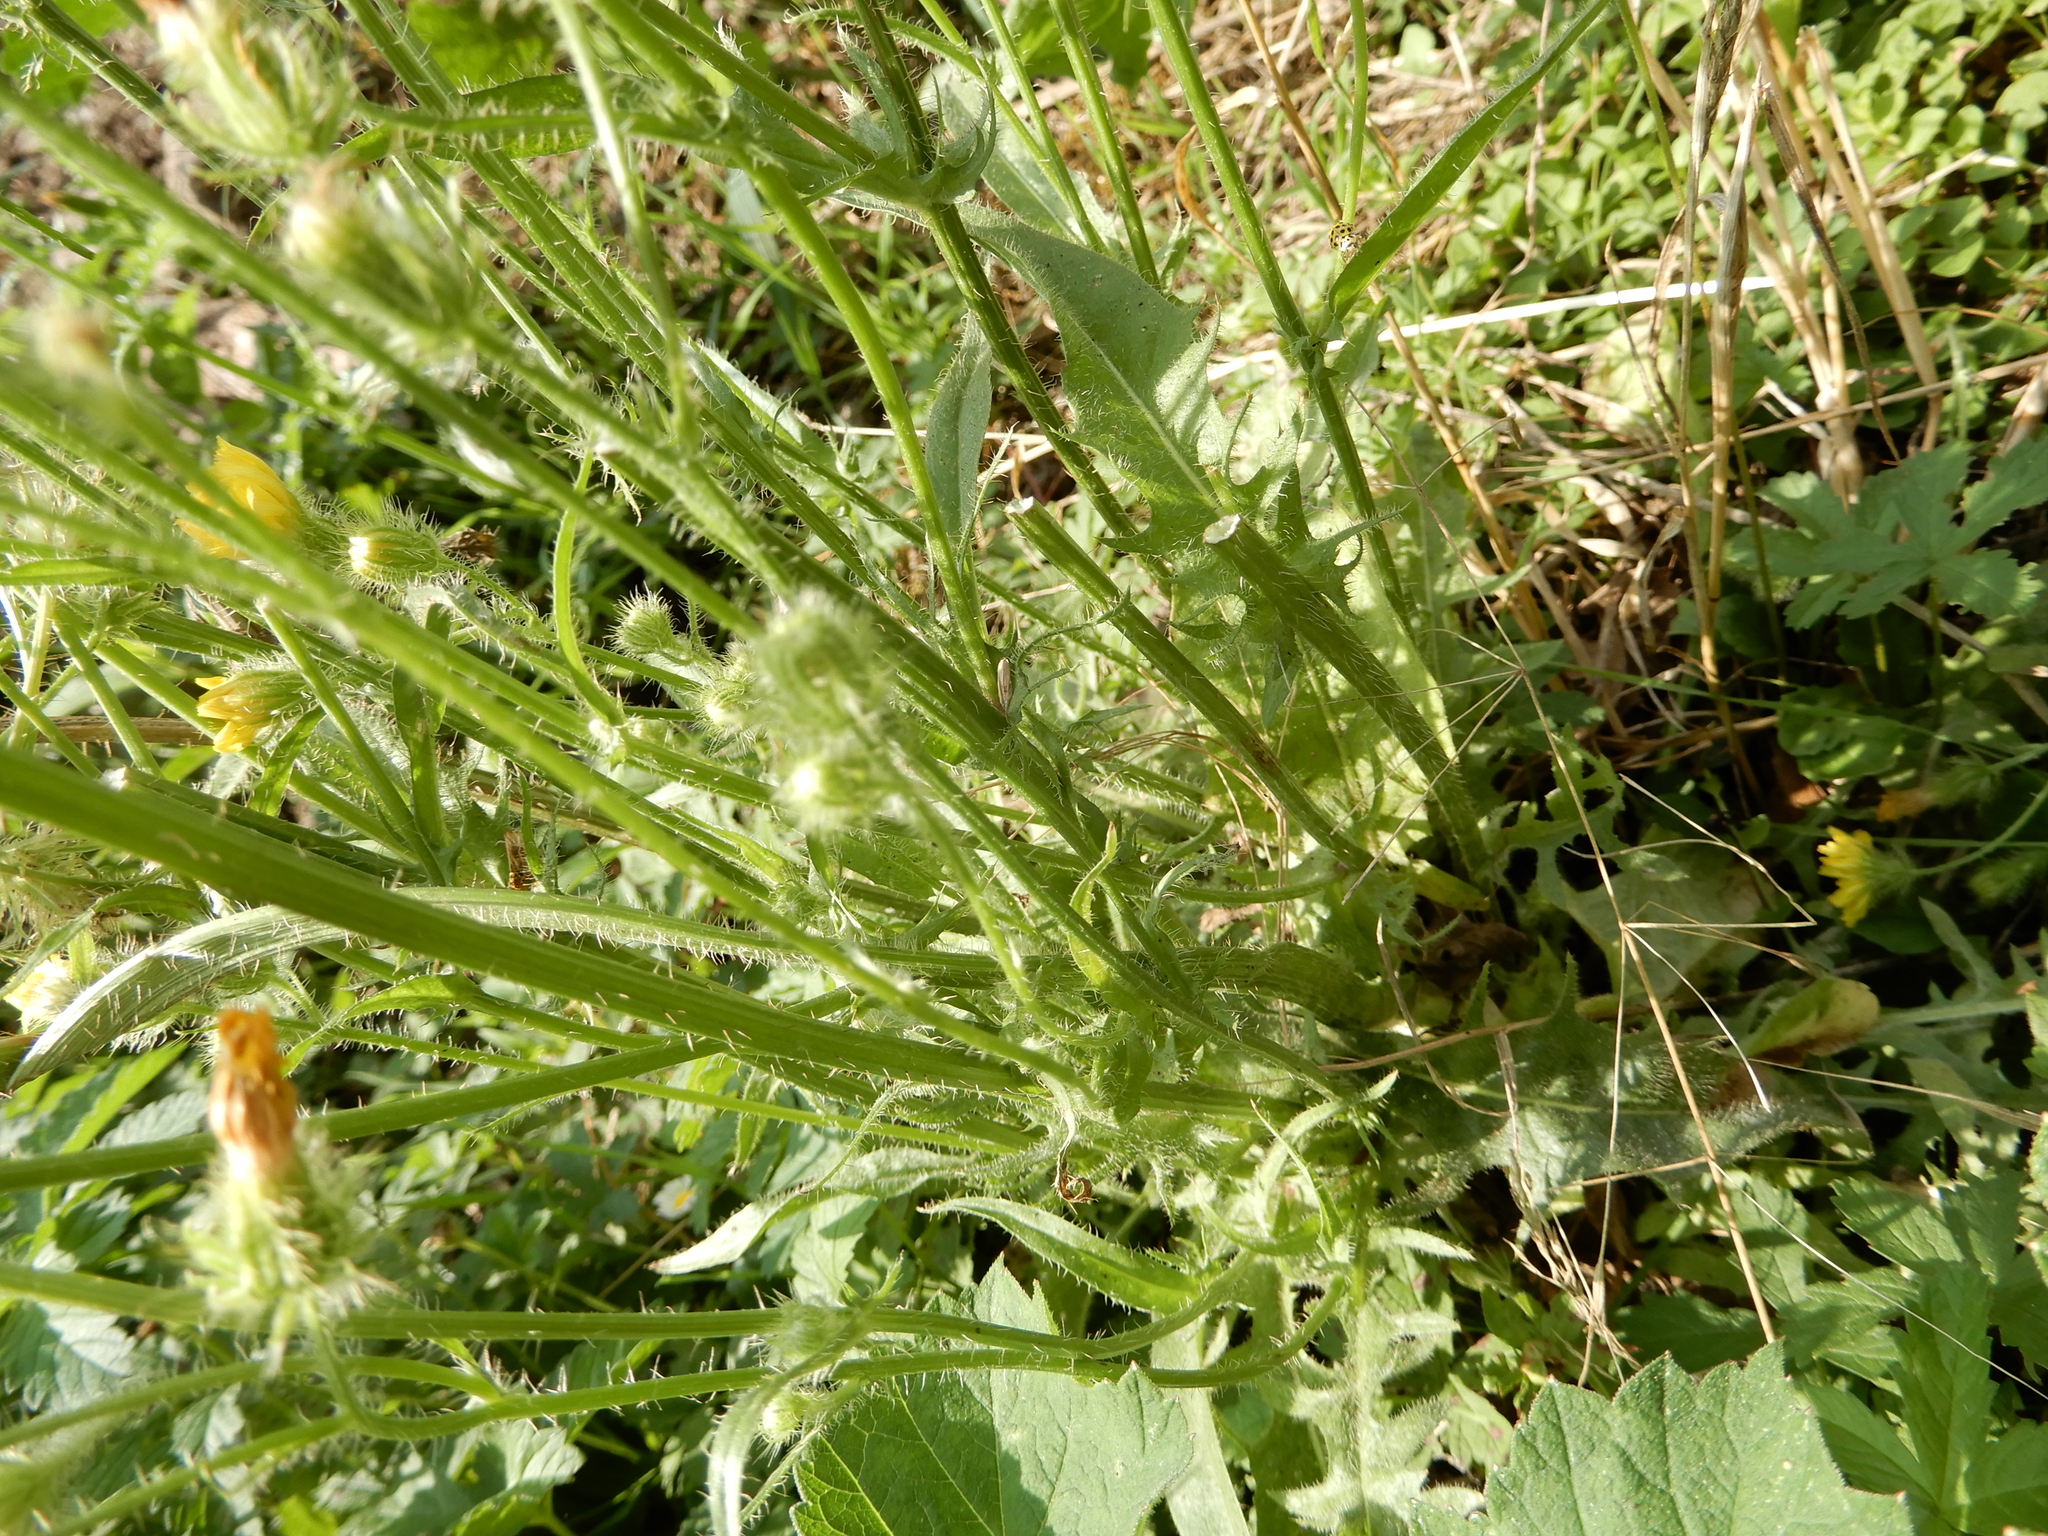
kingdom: Plantae
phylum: Tracheophyta
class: Magnoliopsida
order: Asterales
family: Asteraceae
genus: Crepis
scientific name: Crepis setosa
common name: Bristly hawk's-beard
